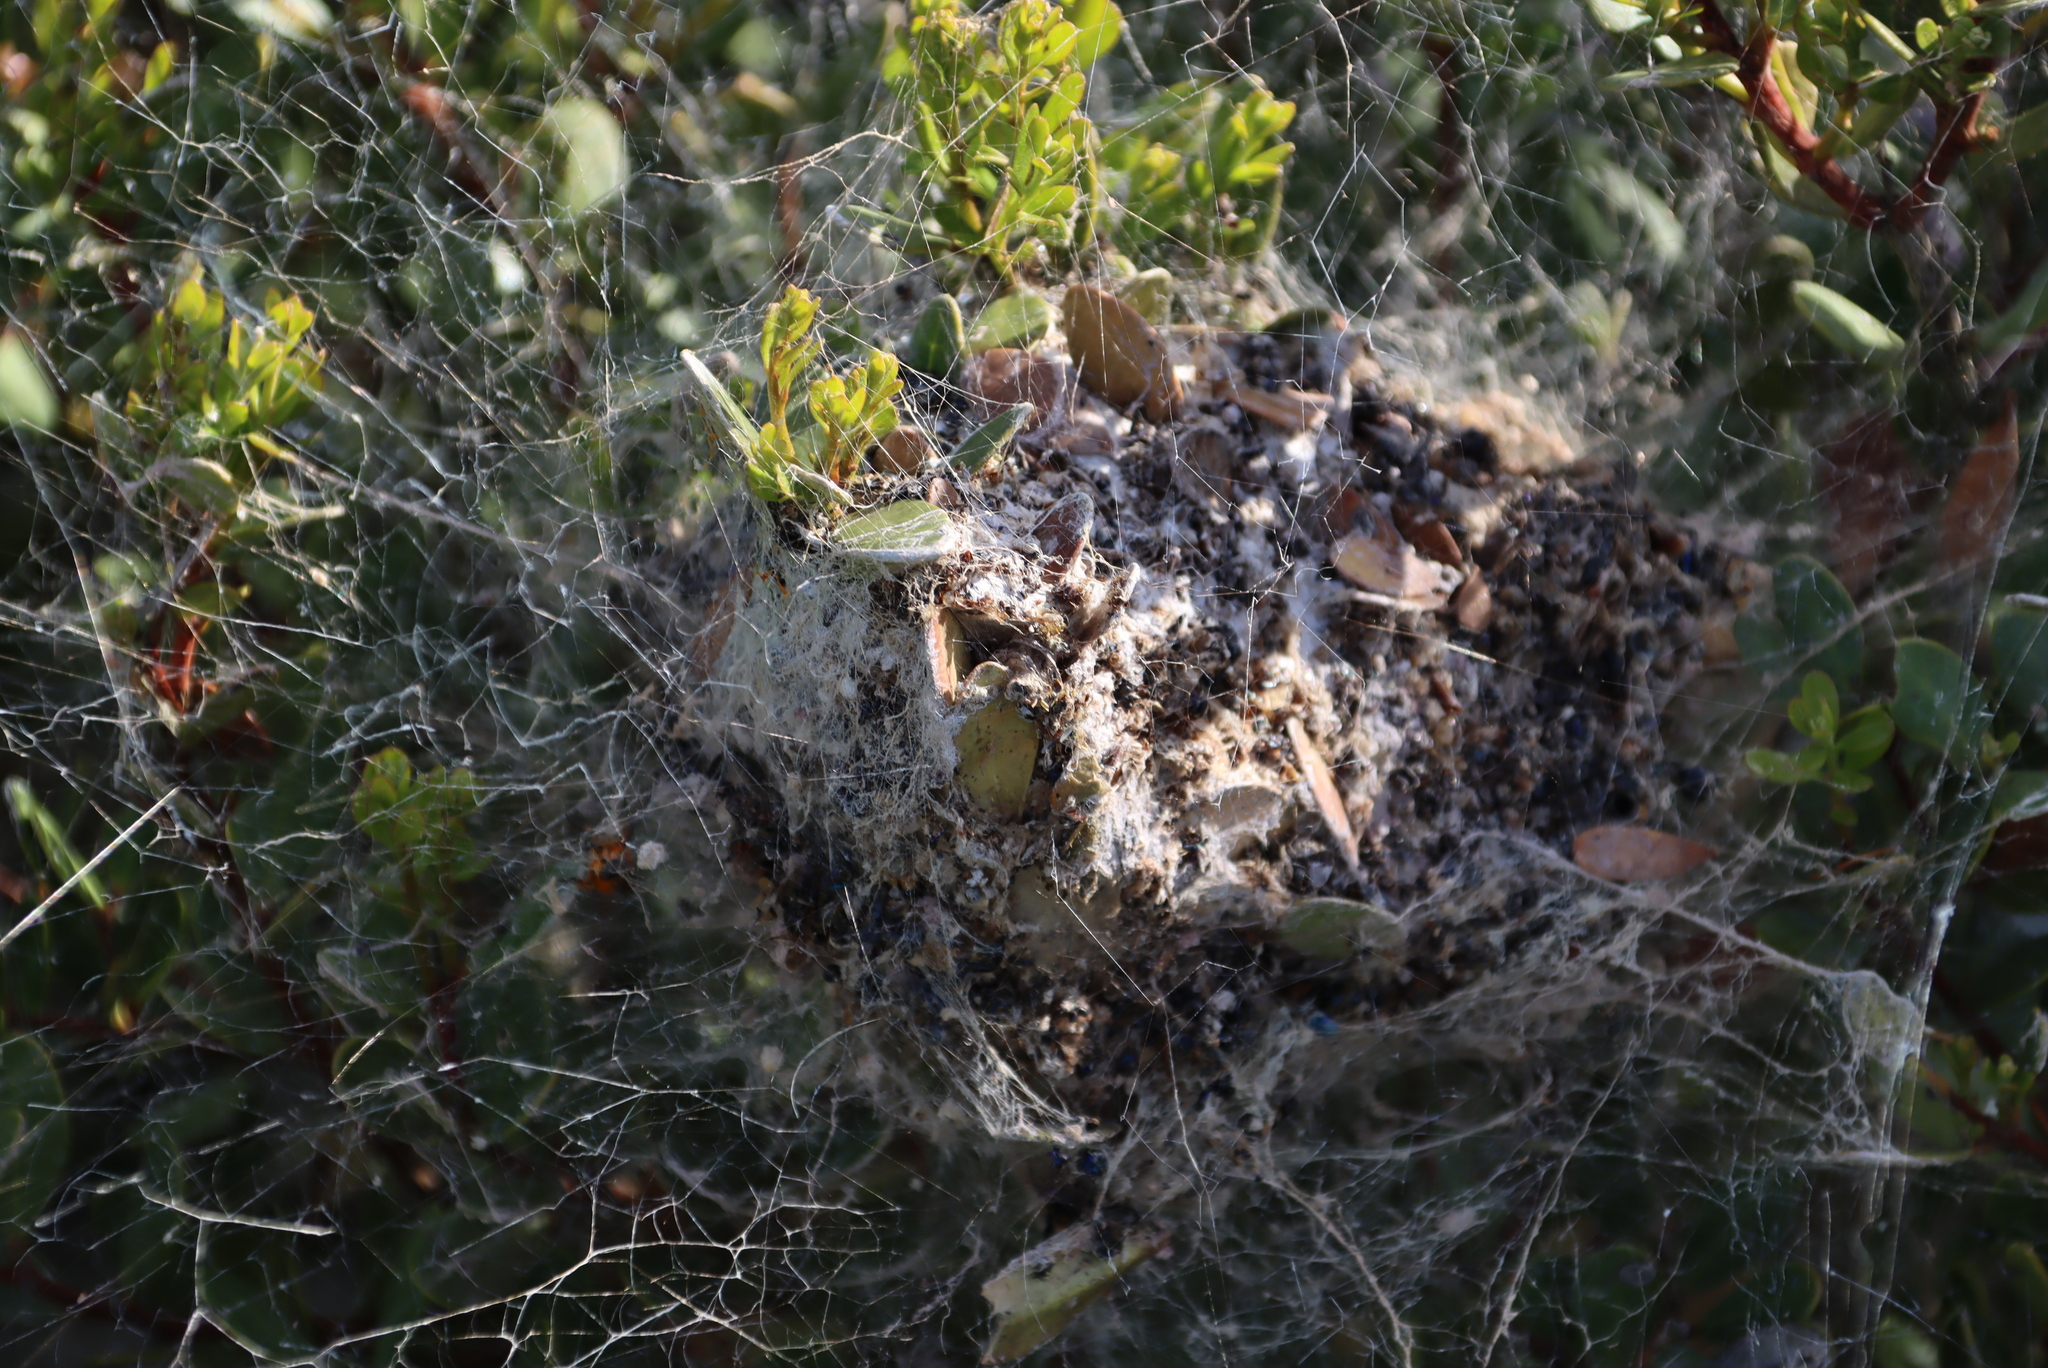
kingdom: Animalia
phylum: Arthropoda
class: Arachnida
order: Araneae
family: Eresidae
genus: Stegodyphus
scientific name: Stegodyphus dumicola
